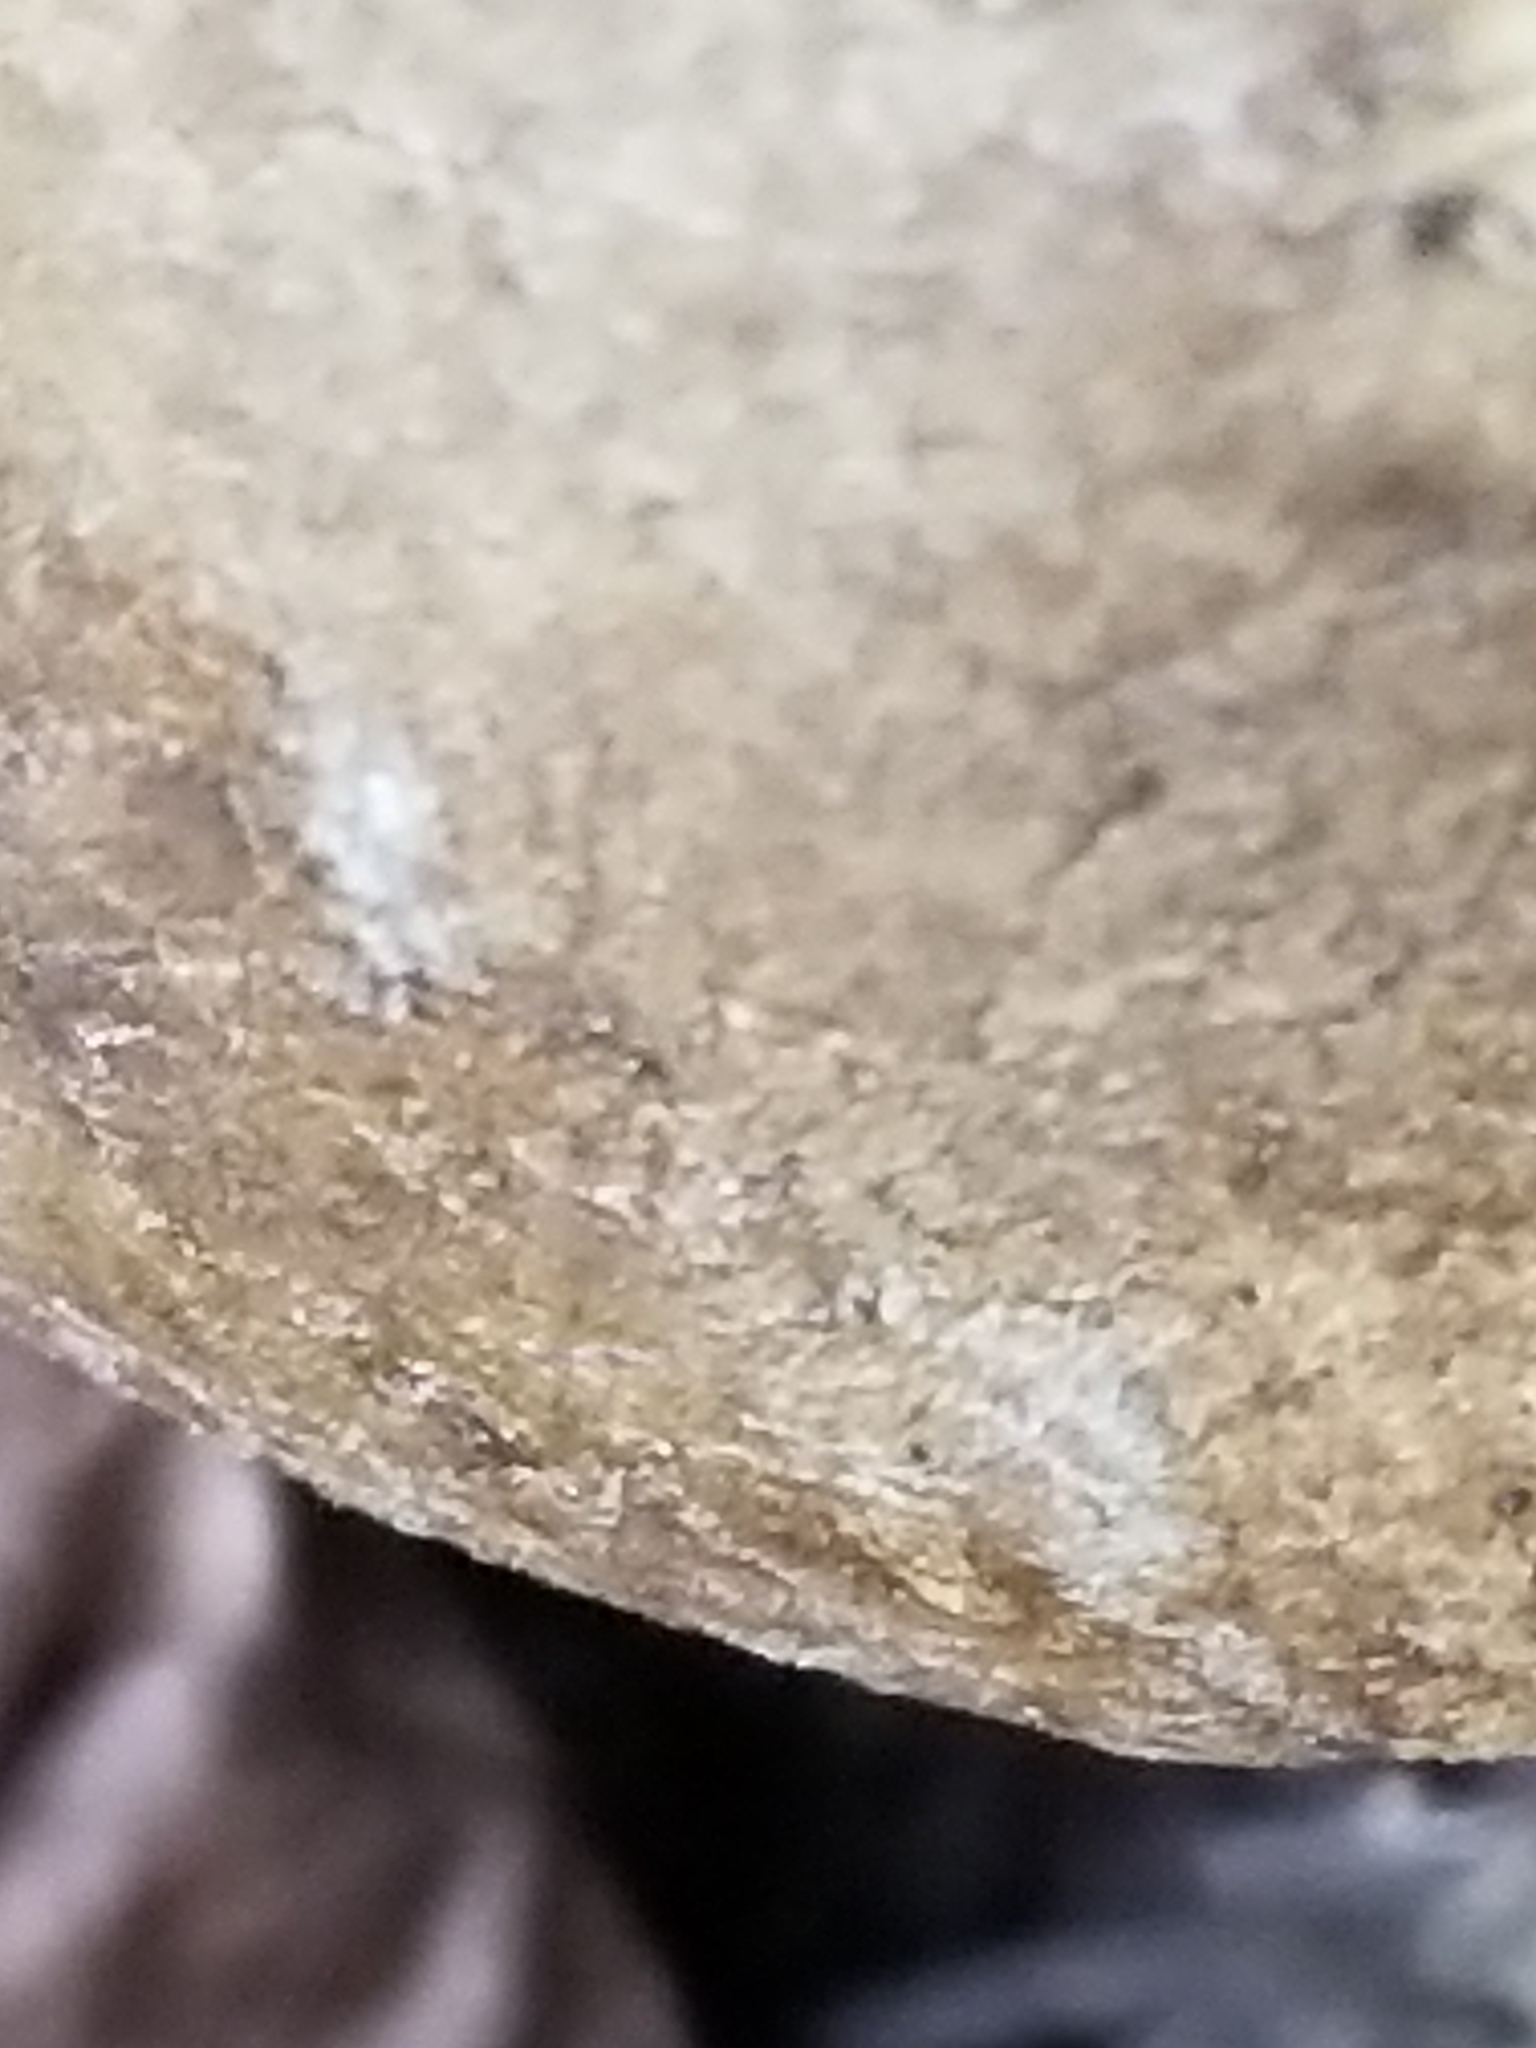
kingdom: Fungi
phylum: Basidiomycota
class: Agaricomycetes
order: Boletales
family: Boletaceae
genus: Harrya
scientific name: Harrya chromipes
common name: Chrome-footed bolete
